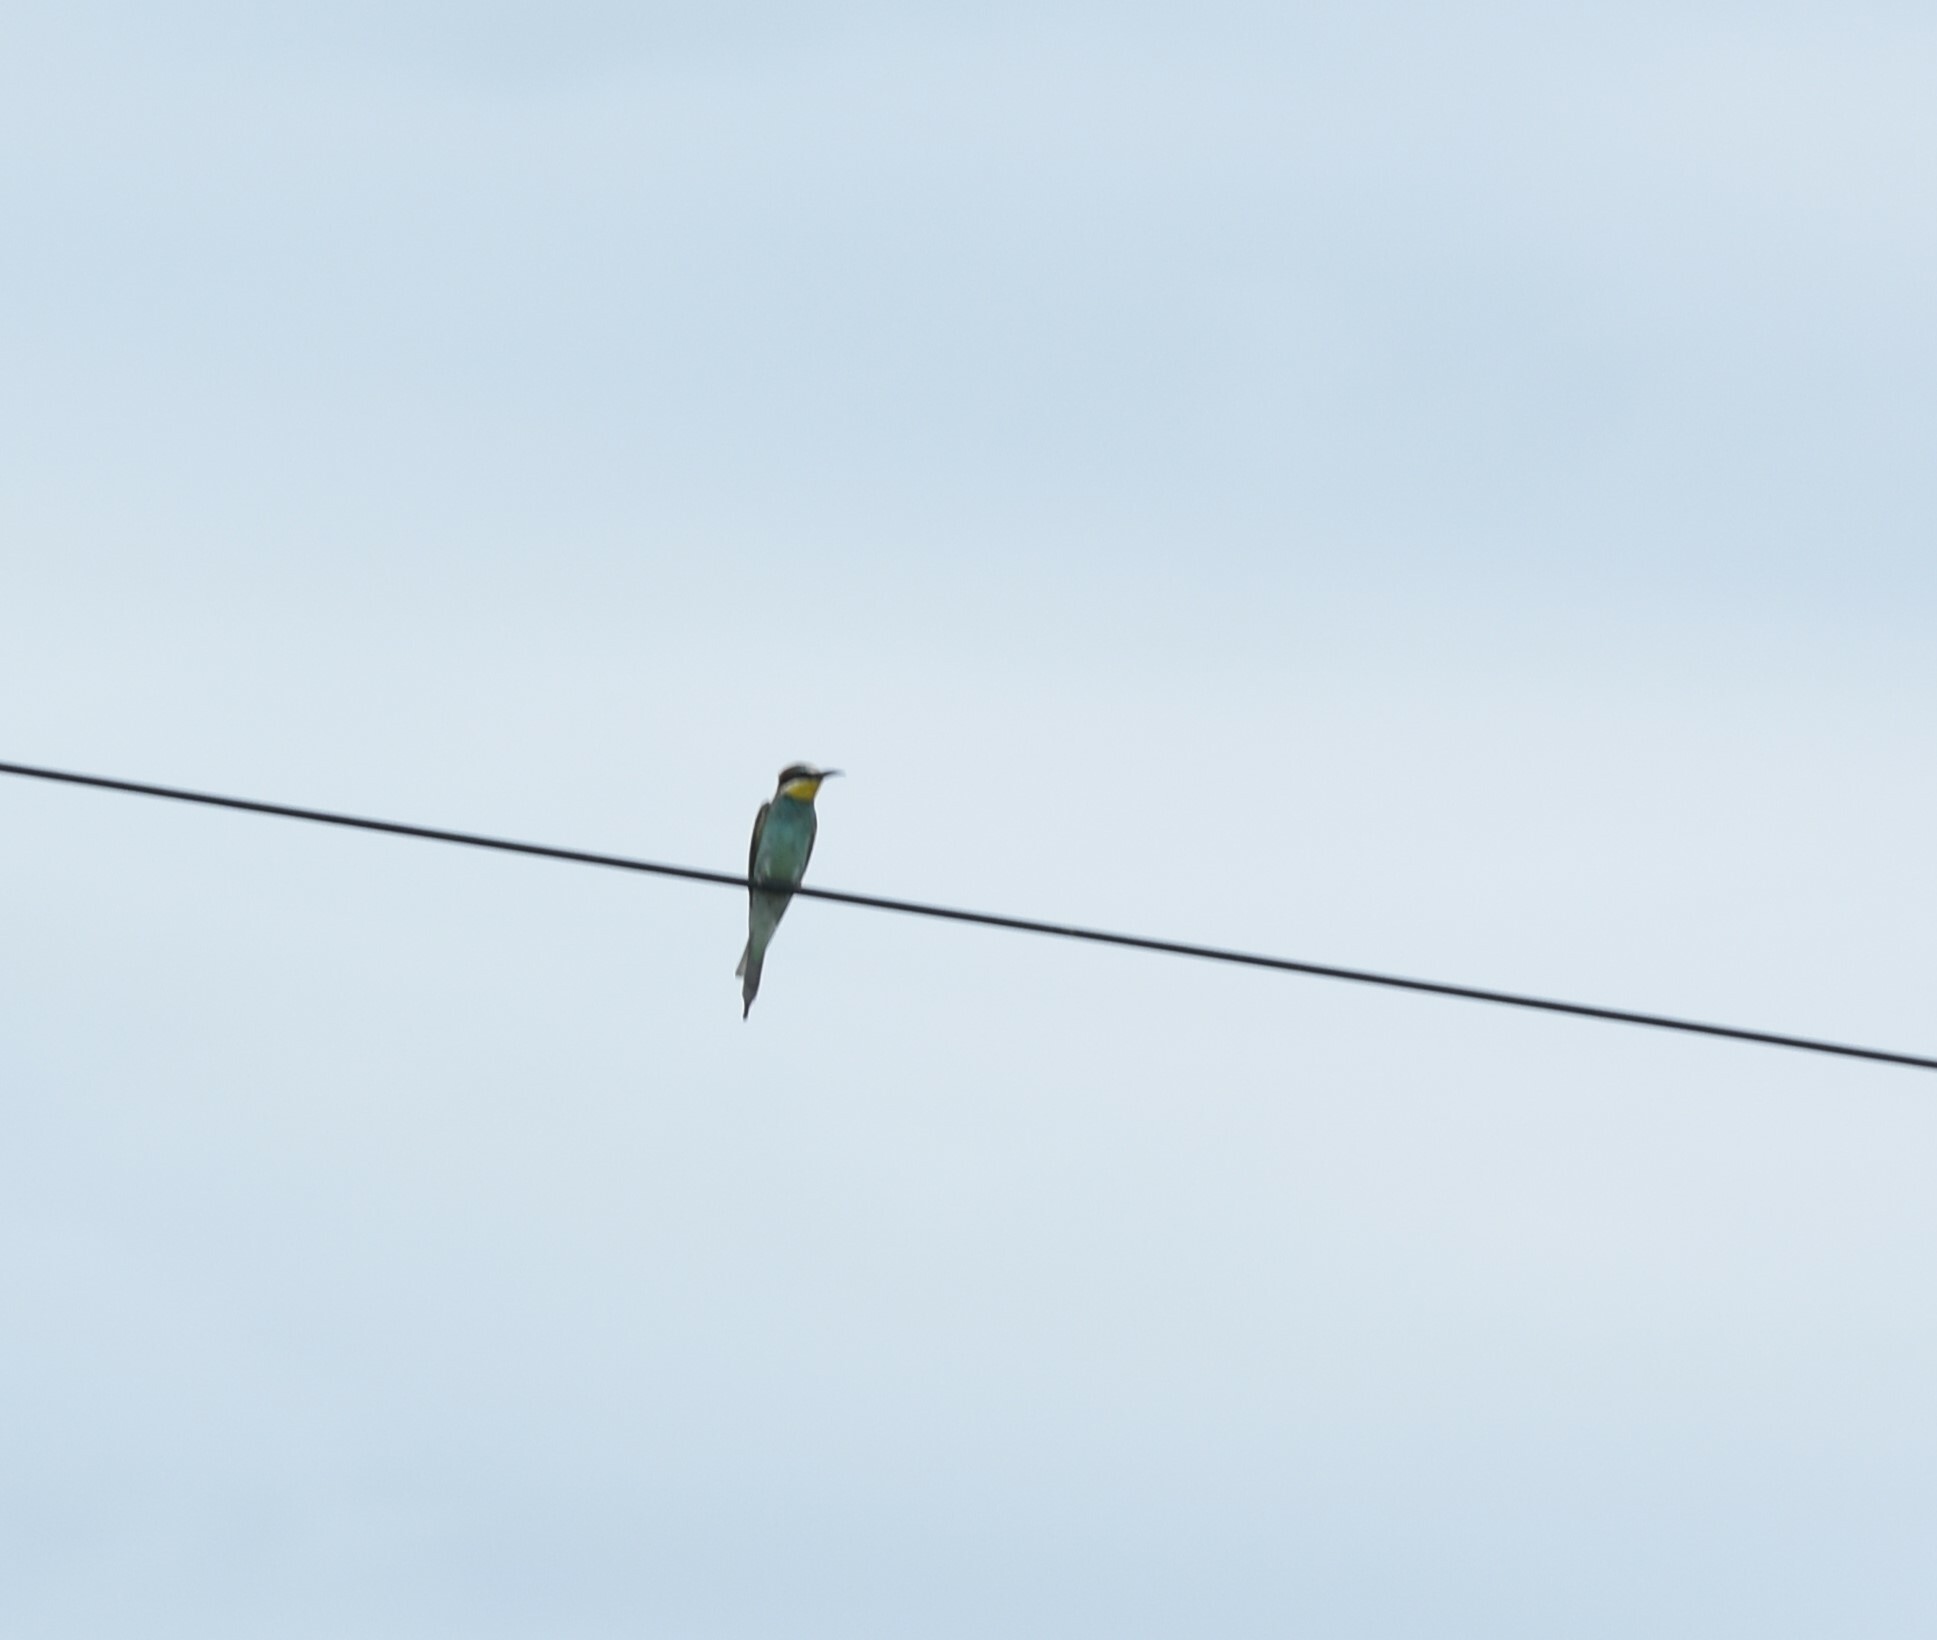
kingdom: Animalia
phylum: Chordata
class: Aves
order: Coraciiformes
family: Meropidae
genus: Merops
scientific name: Merops apiaster
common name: European bee-eater
